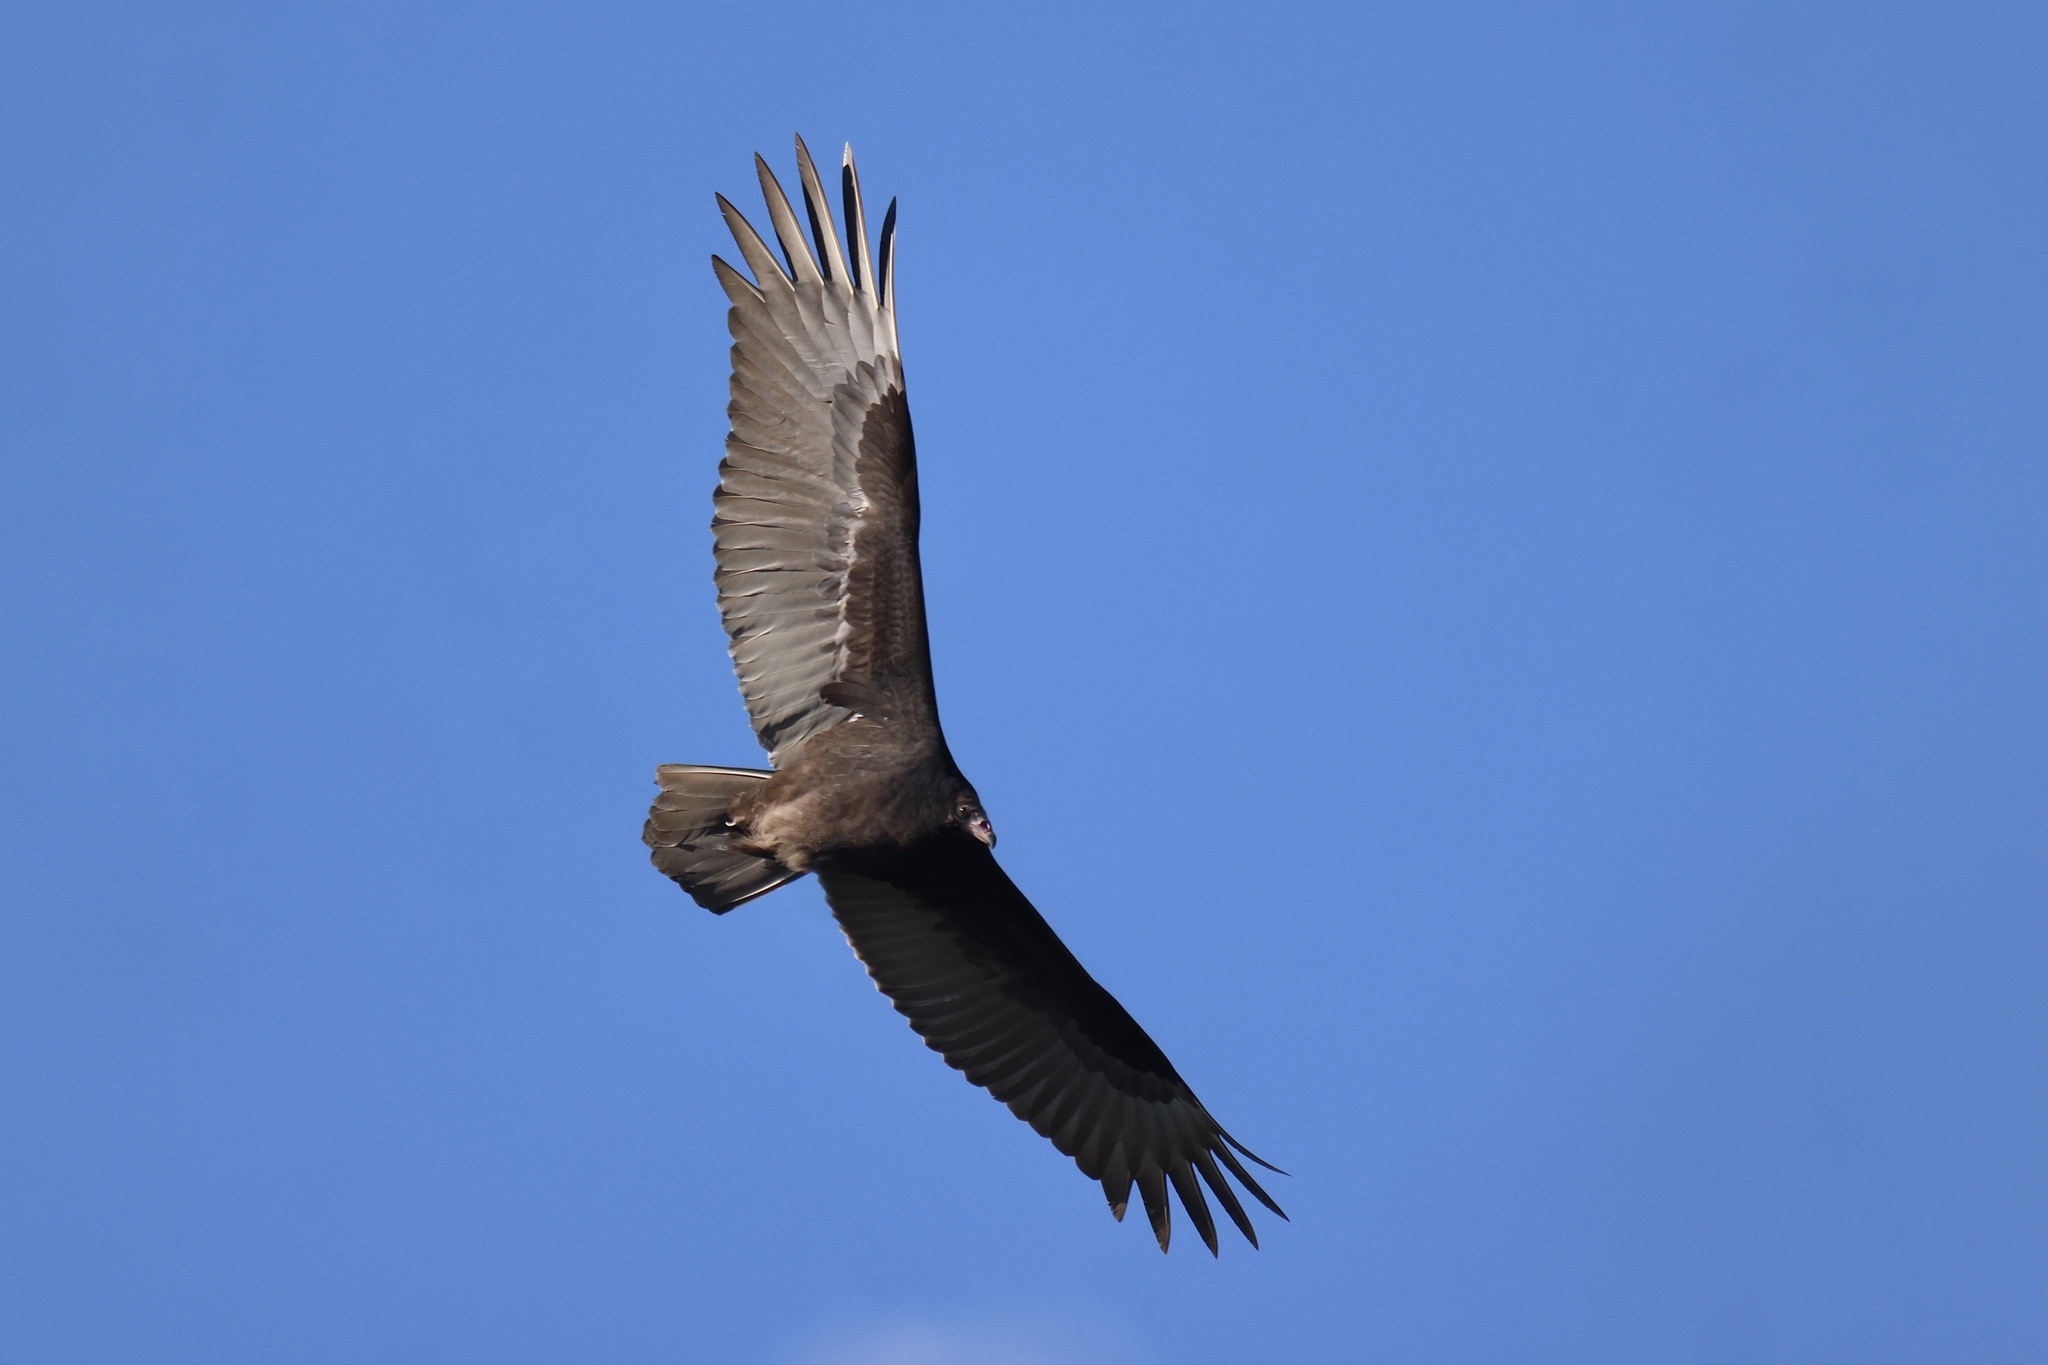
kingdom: Animalia
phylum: Chordata
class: Aves
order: Accipitriformes
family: Cathartidae
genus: Cathartes
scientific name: Cathartes aura
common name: Turkey vulture
